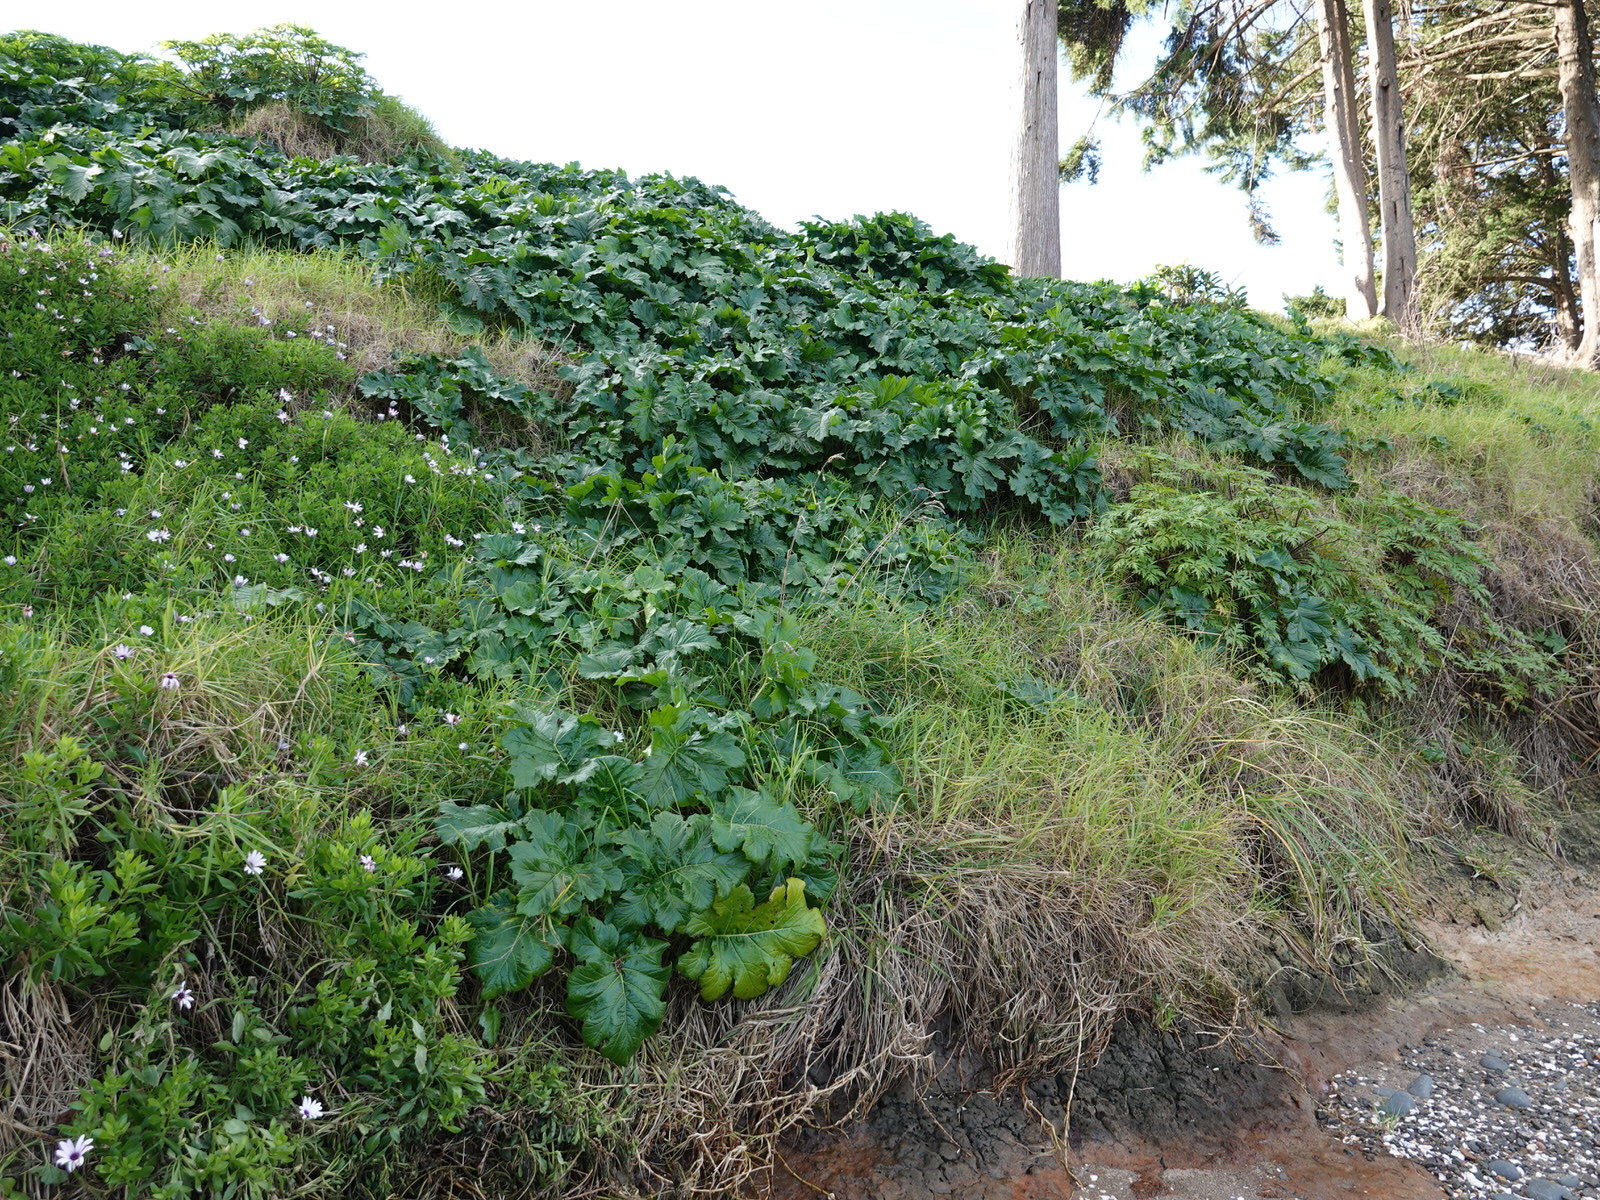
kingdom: Plantae
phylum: Tracheophyta
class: Magnoliopsida
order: Lamiales
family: Acanthaceae
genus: Acanthus
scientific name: Acanthus mollis
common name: Bear's-breech
